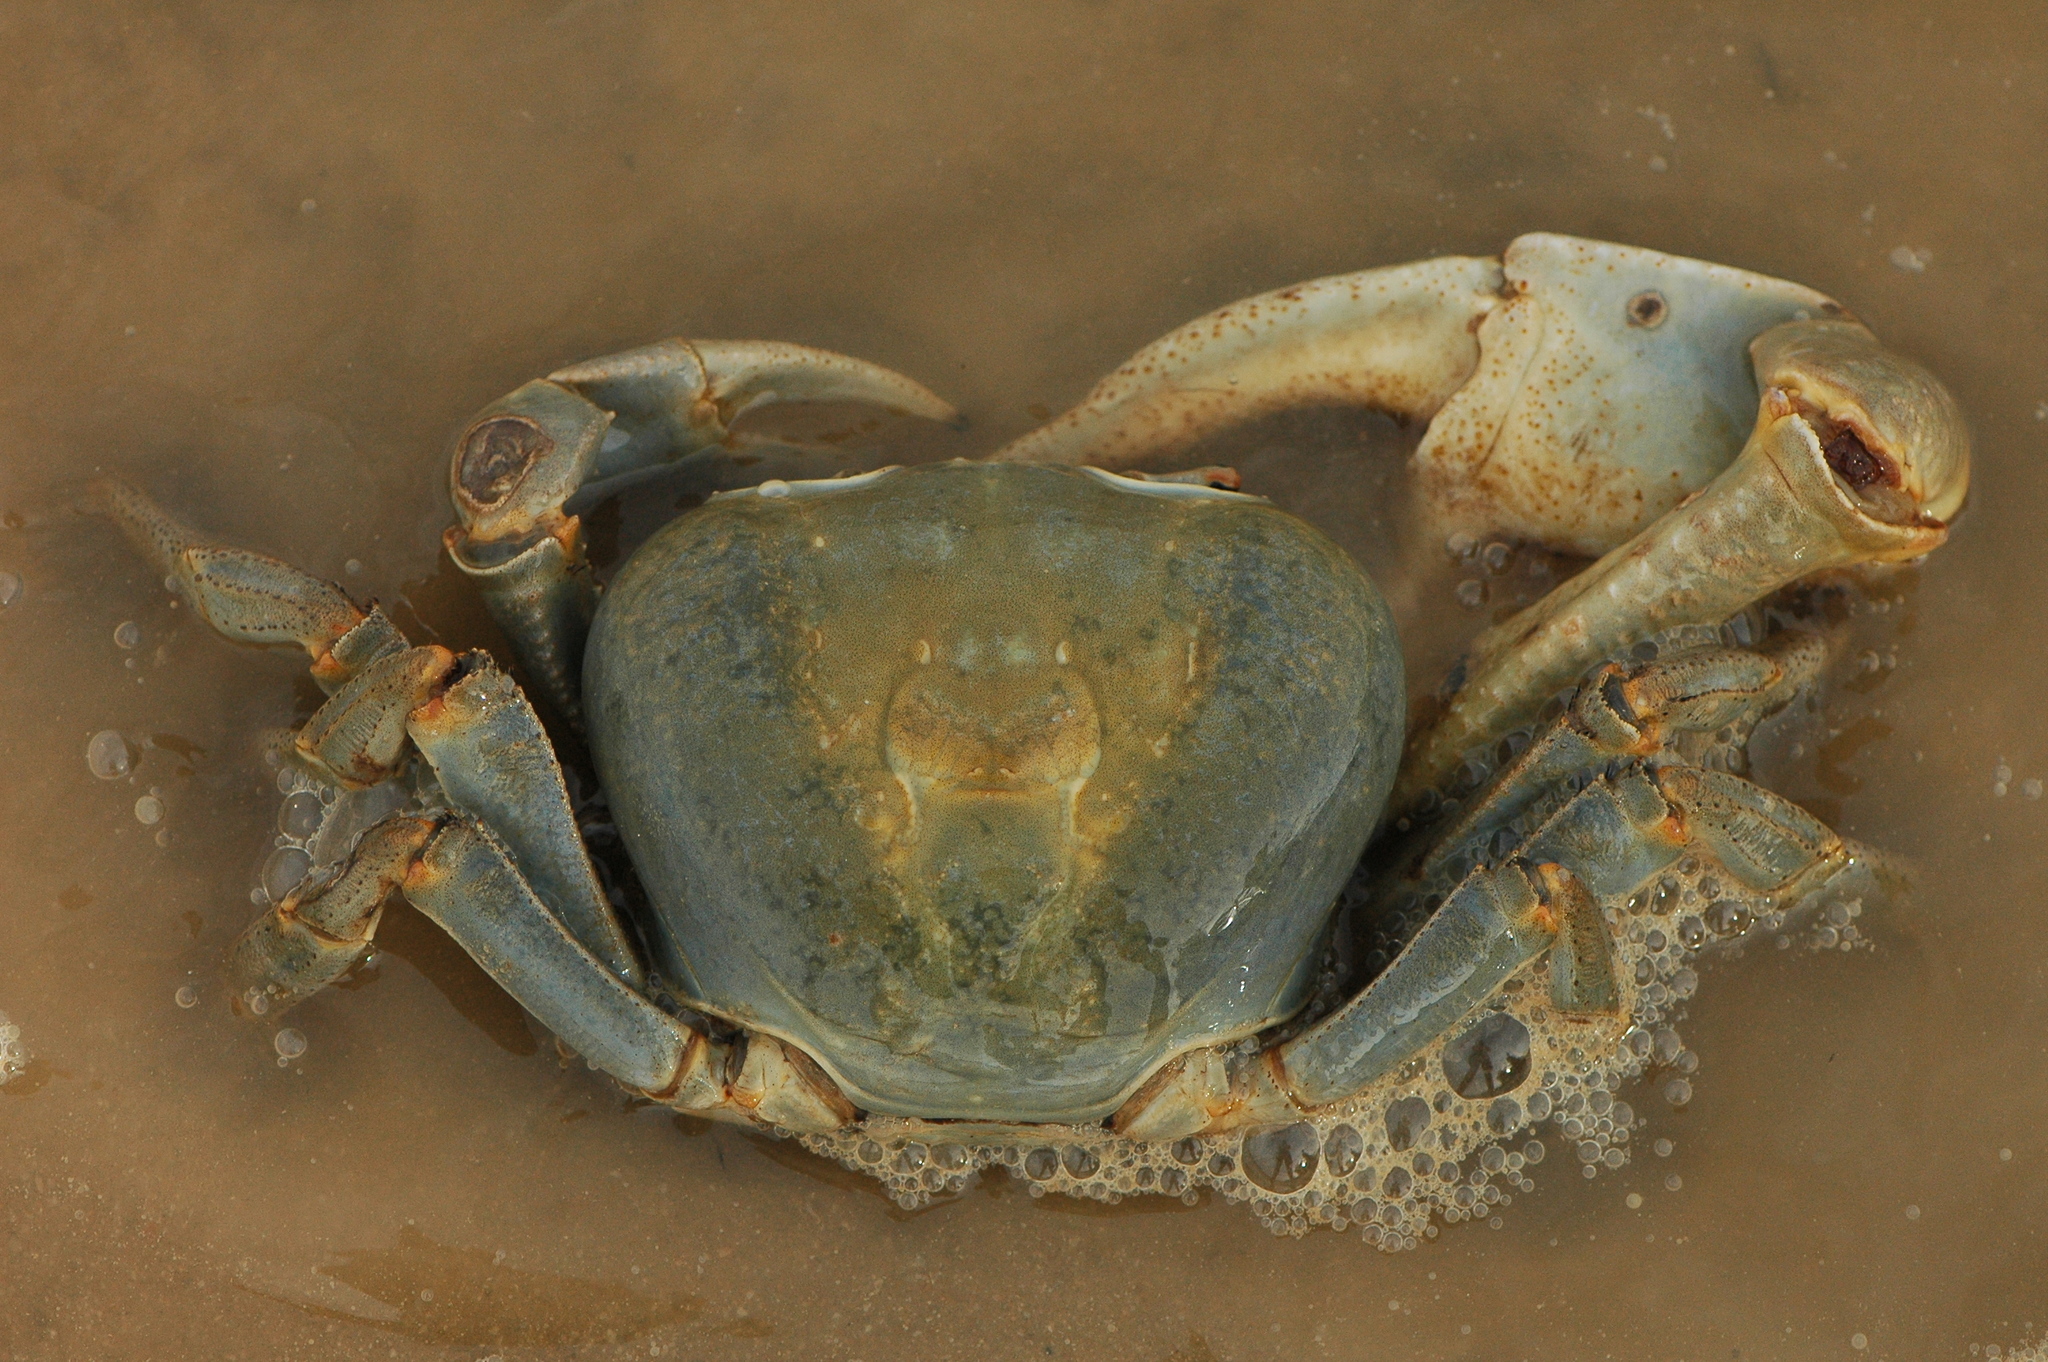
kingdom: Animalia
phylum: Arthropoda
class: Malacostraca
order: Decapoda
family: Gecarcinidae
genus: Cardisoma
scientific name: Cardisoma armatum
